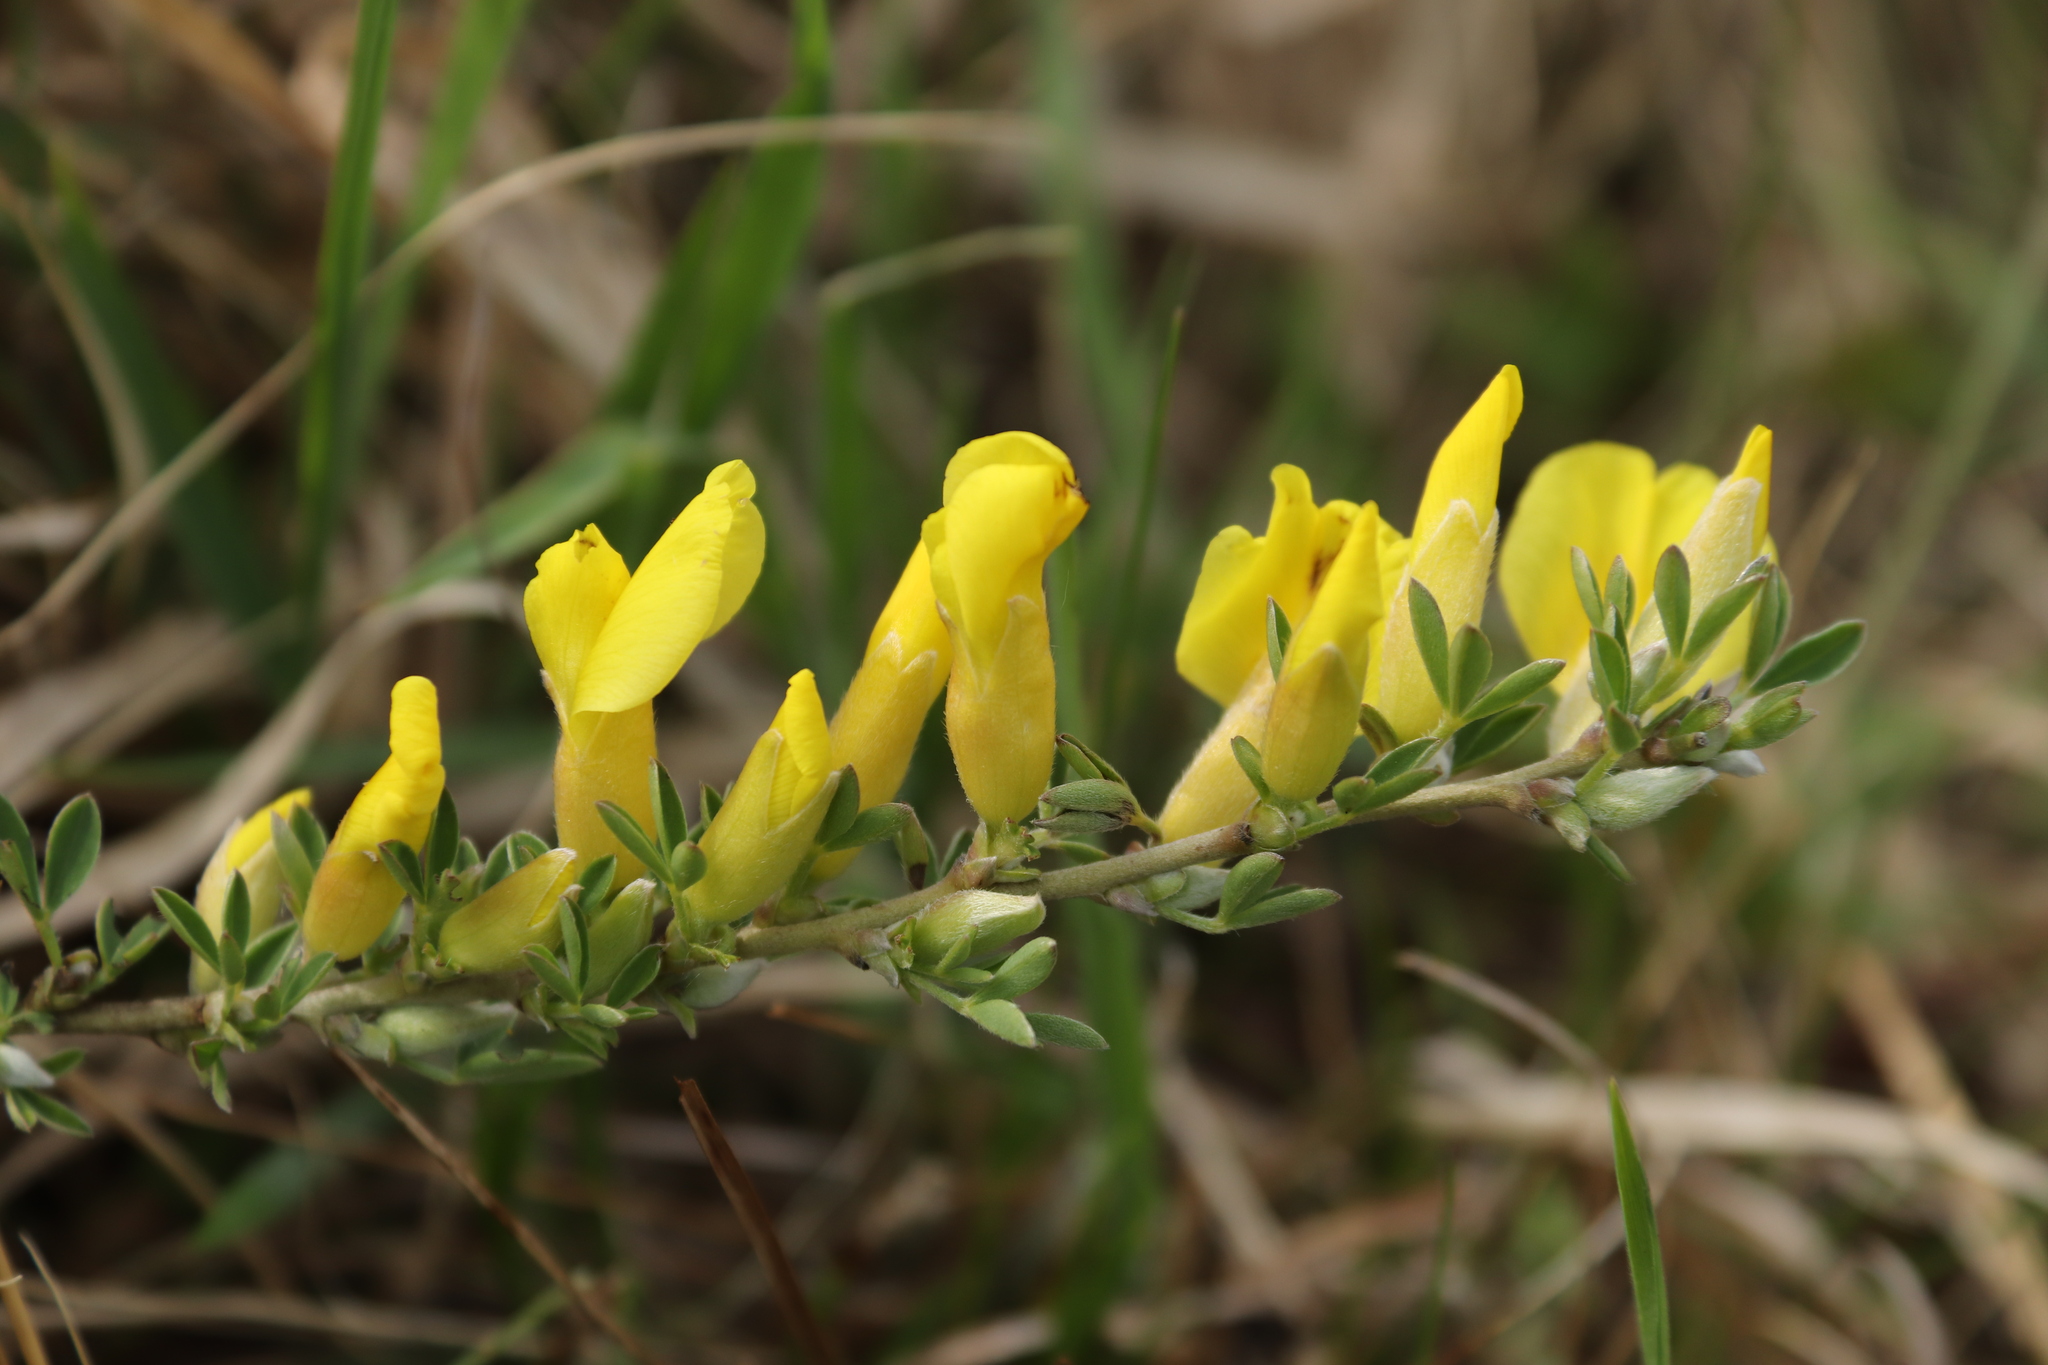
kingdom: Plantae
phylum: Tracheophyta
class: Magnoliopsida
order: Fabales
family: Fabaceae
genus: Chamaecytisus
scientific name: Chamaecytisus ratisbonensis
